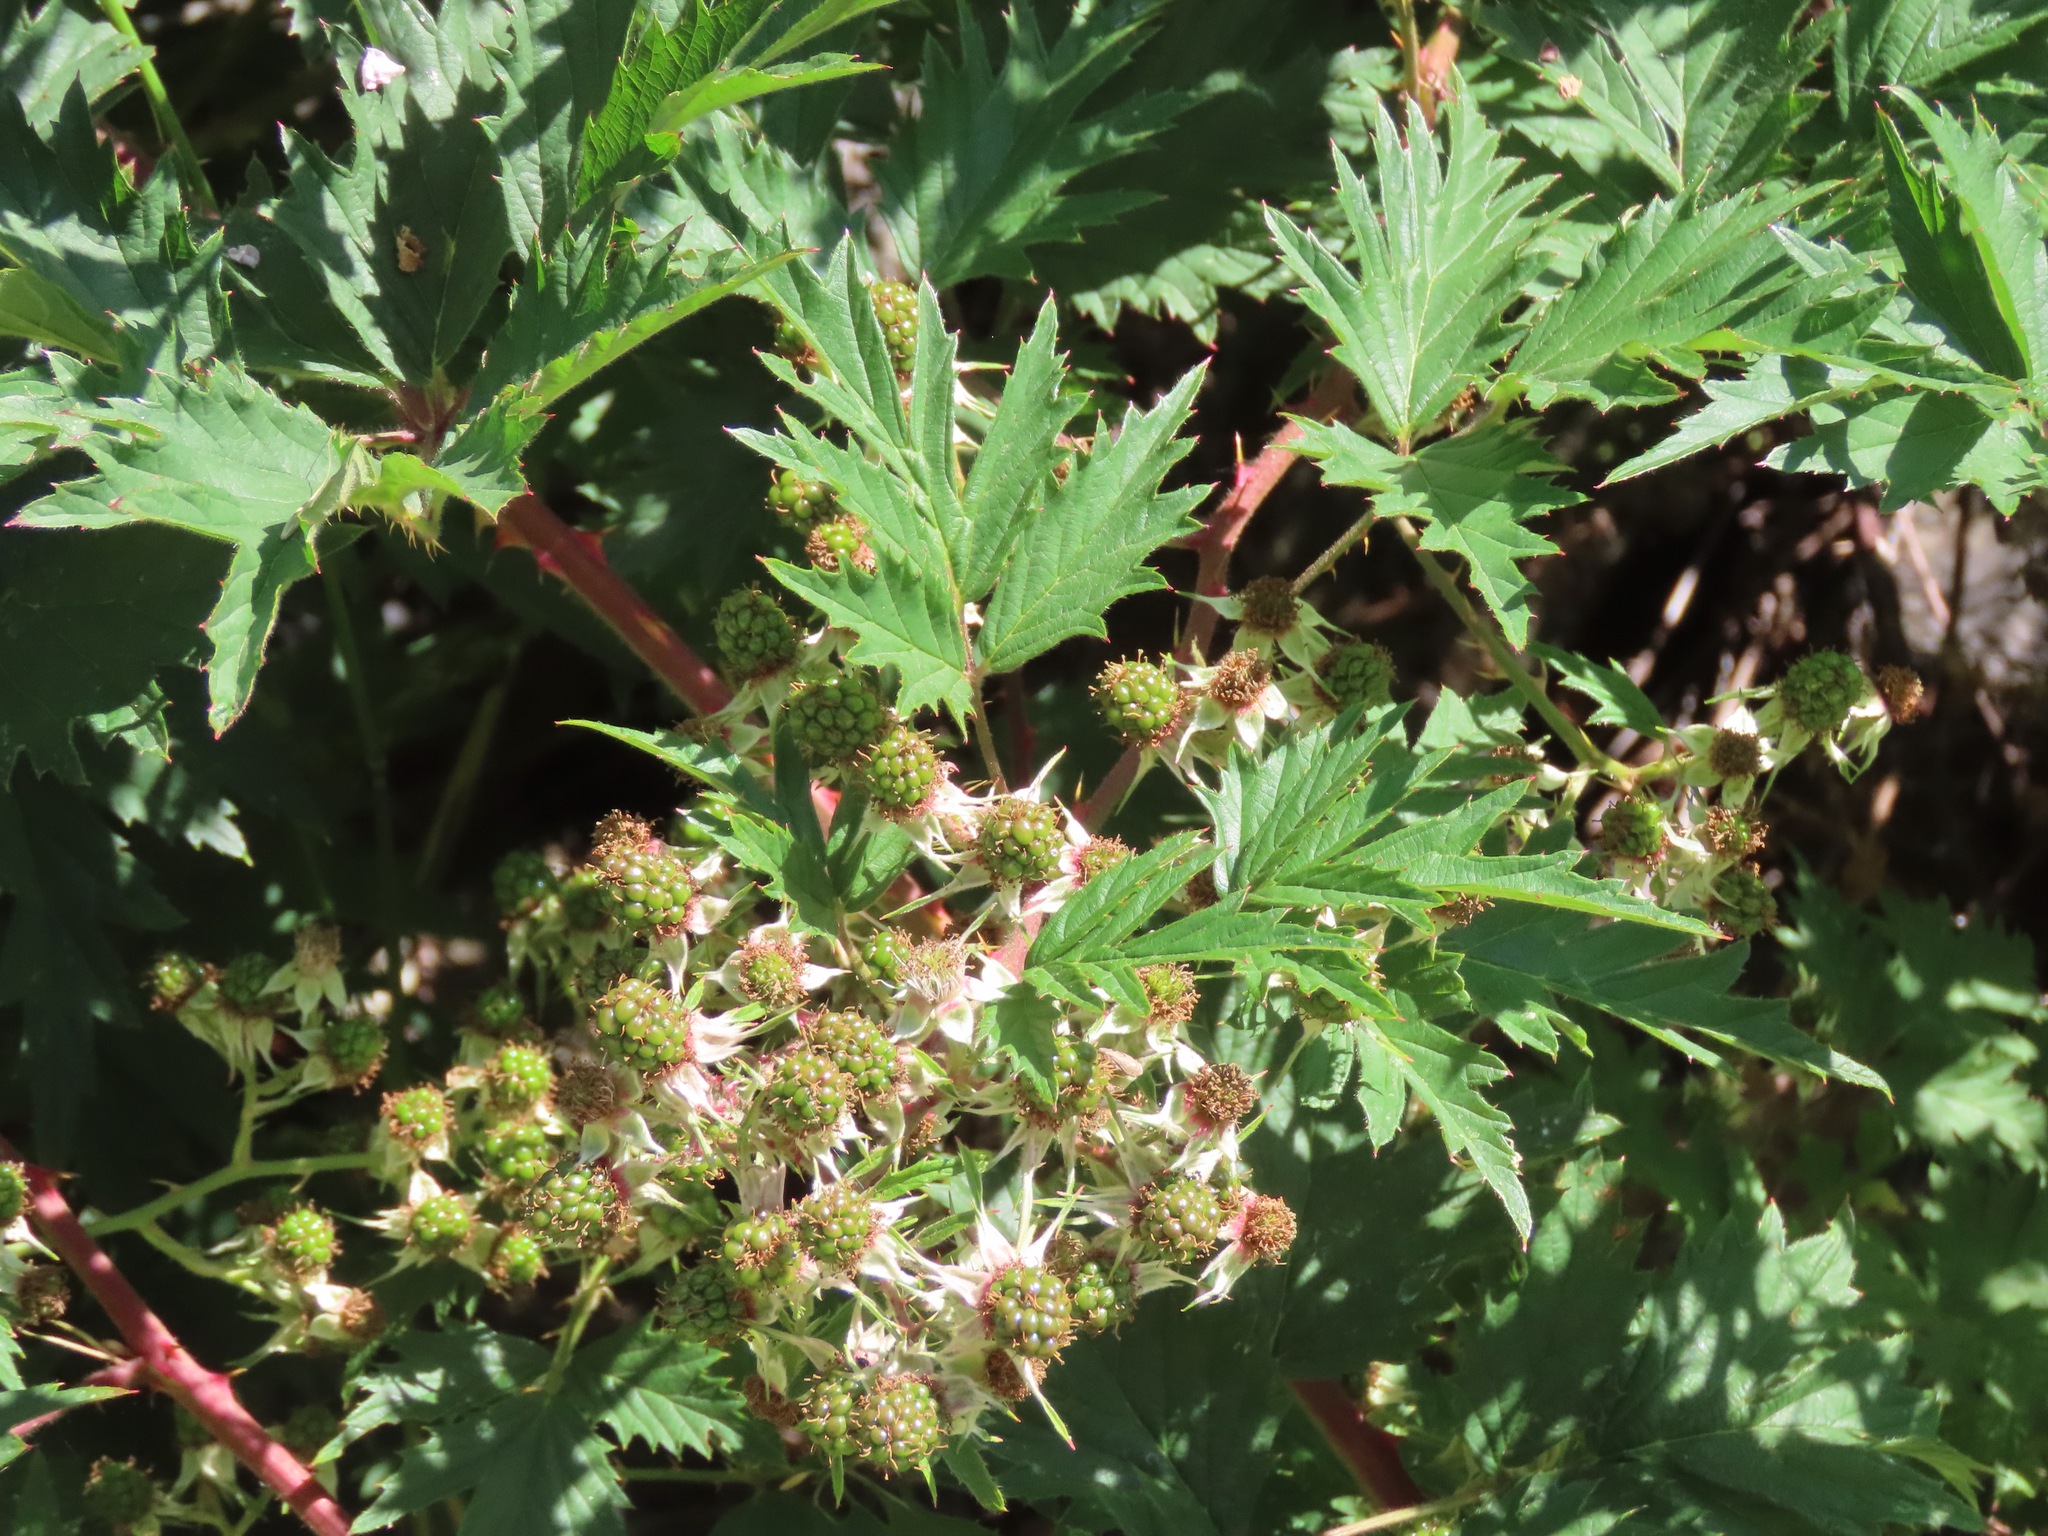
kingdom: Plantae
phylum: Tracheophyta
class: Magnoliopsida
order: Rosales
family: Rosaceae
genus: Rubus
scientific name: Rubus laciniatus
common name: Evergreen blackberry
